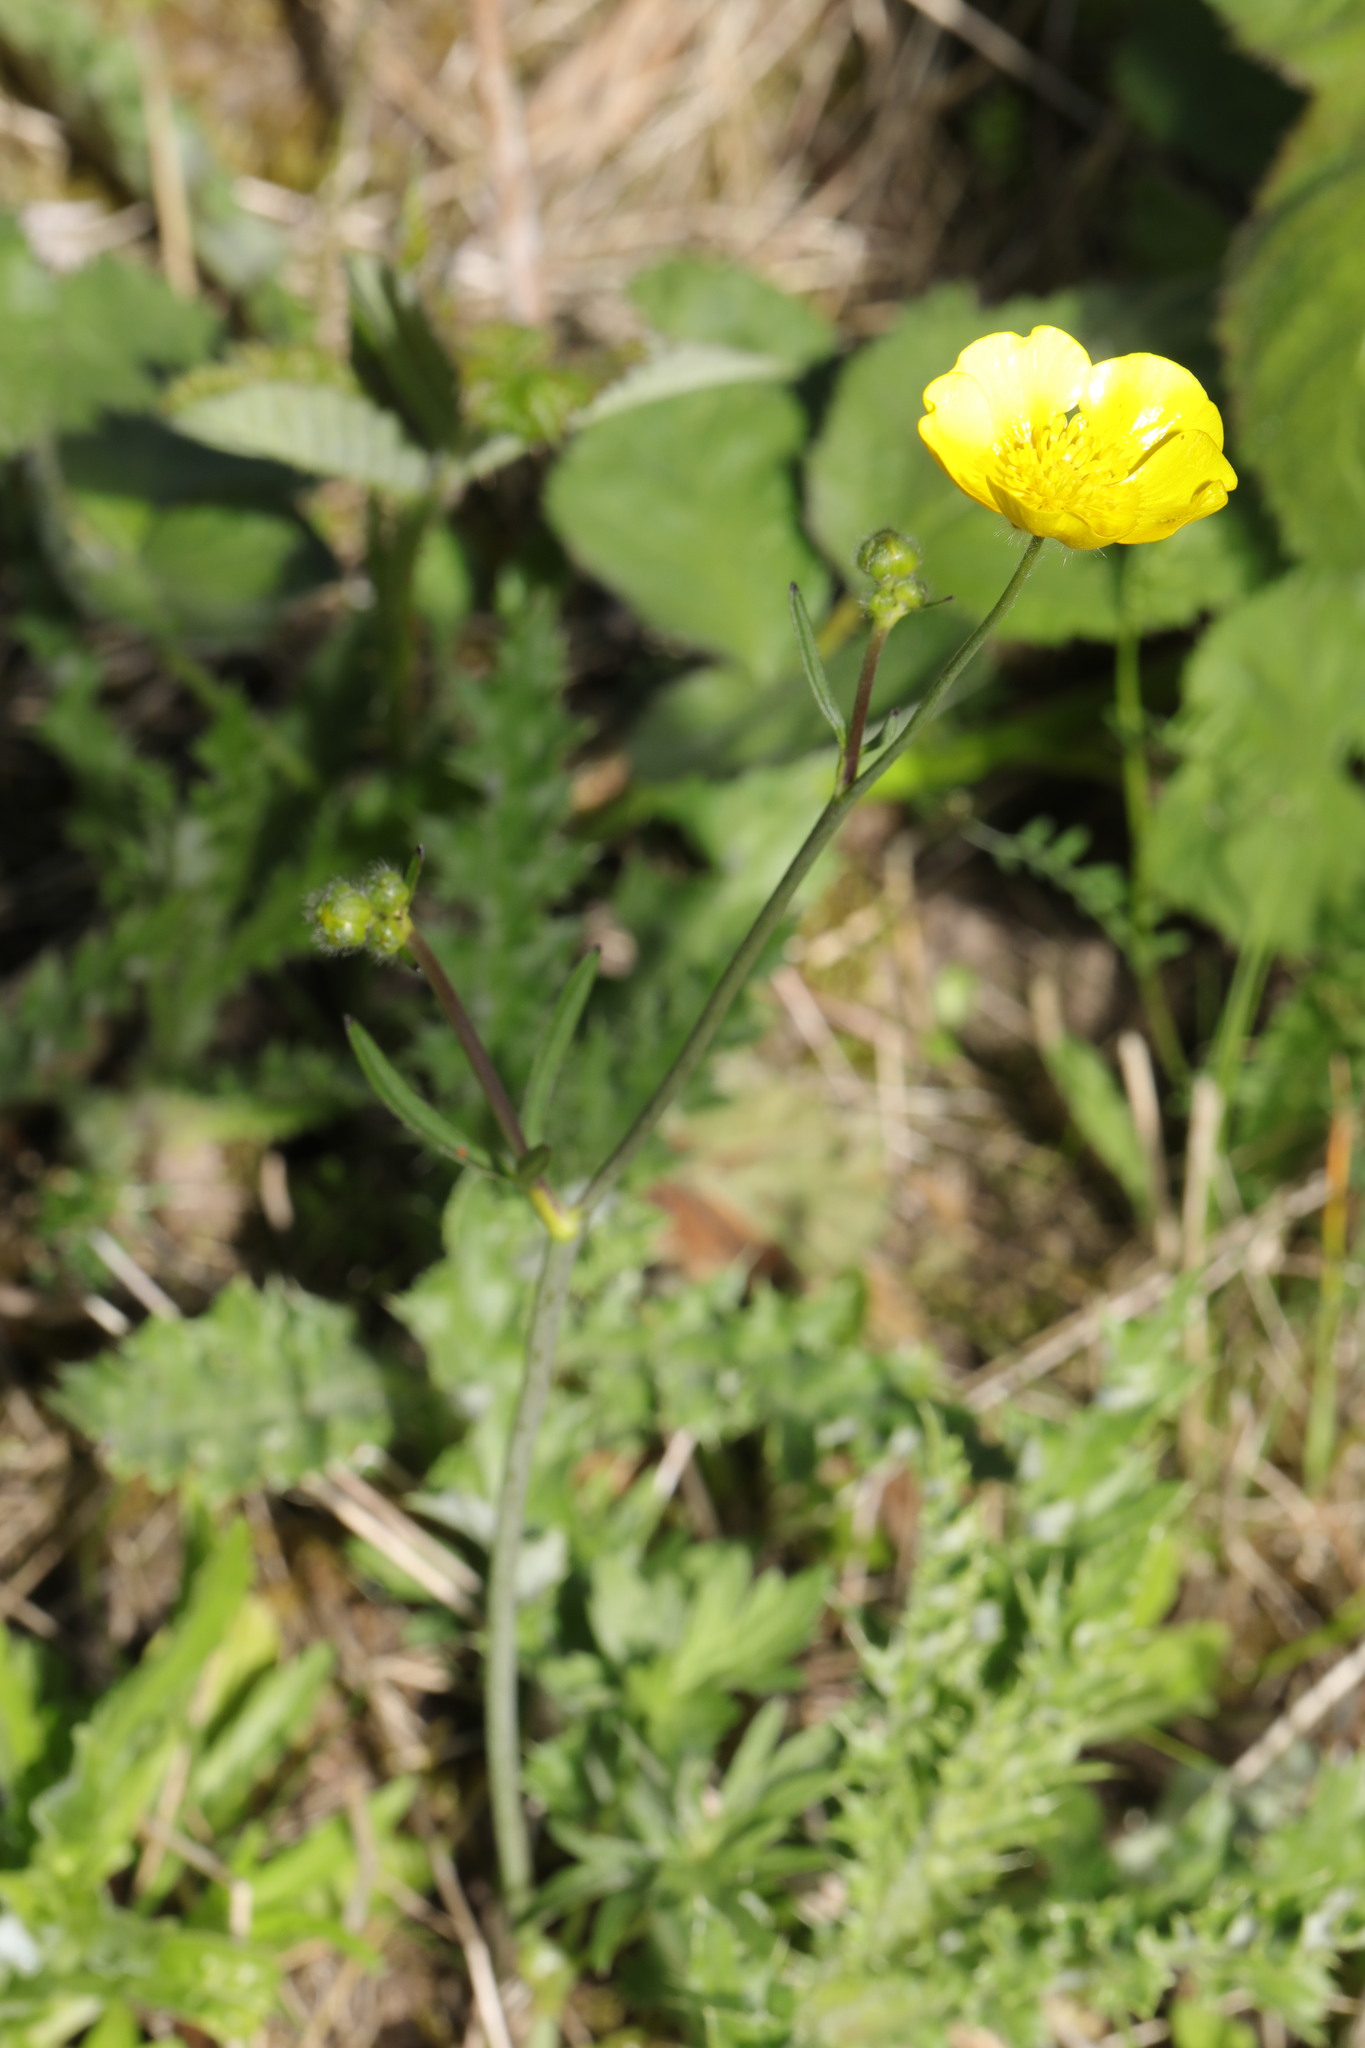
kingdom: Plantae
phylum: Tracheophyta
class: Magnoliopsida
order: Ranunculales
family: Ranunculaceae
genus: Ranunculus
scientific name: Ranunculus acris
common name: Meadow buttercup
